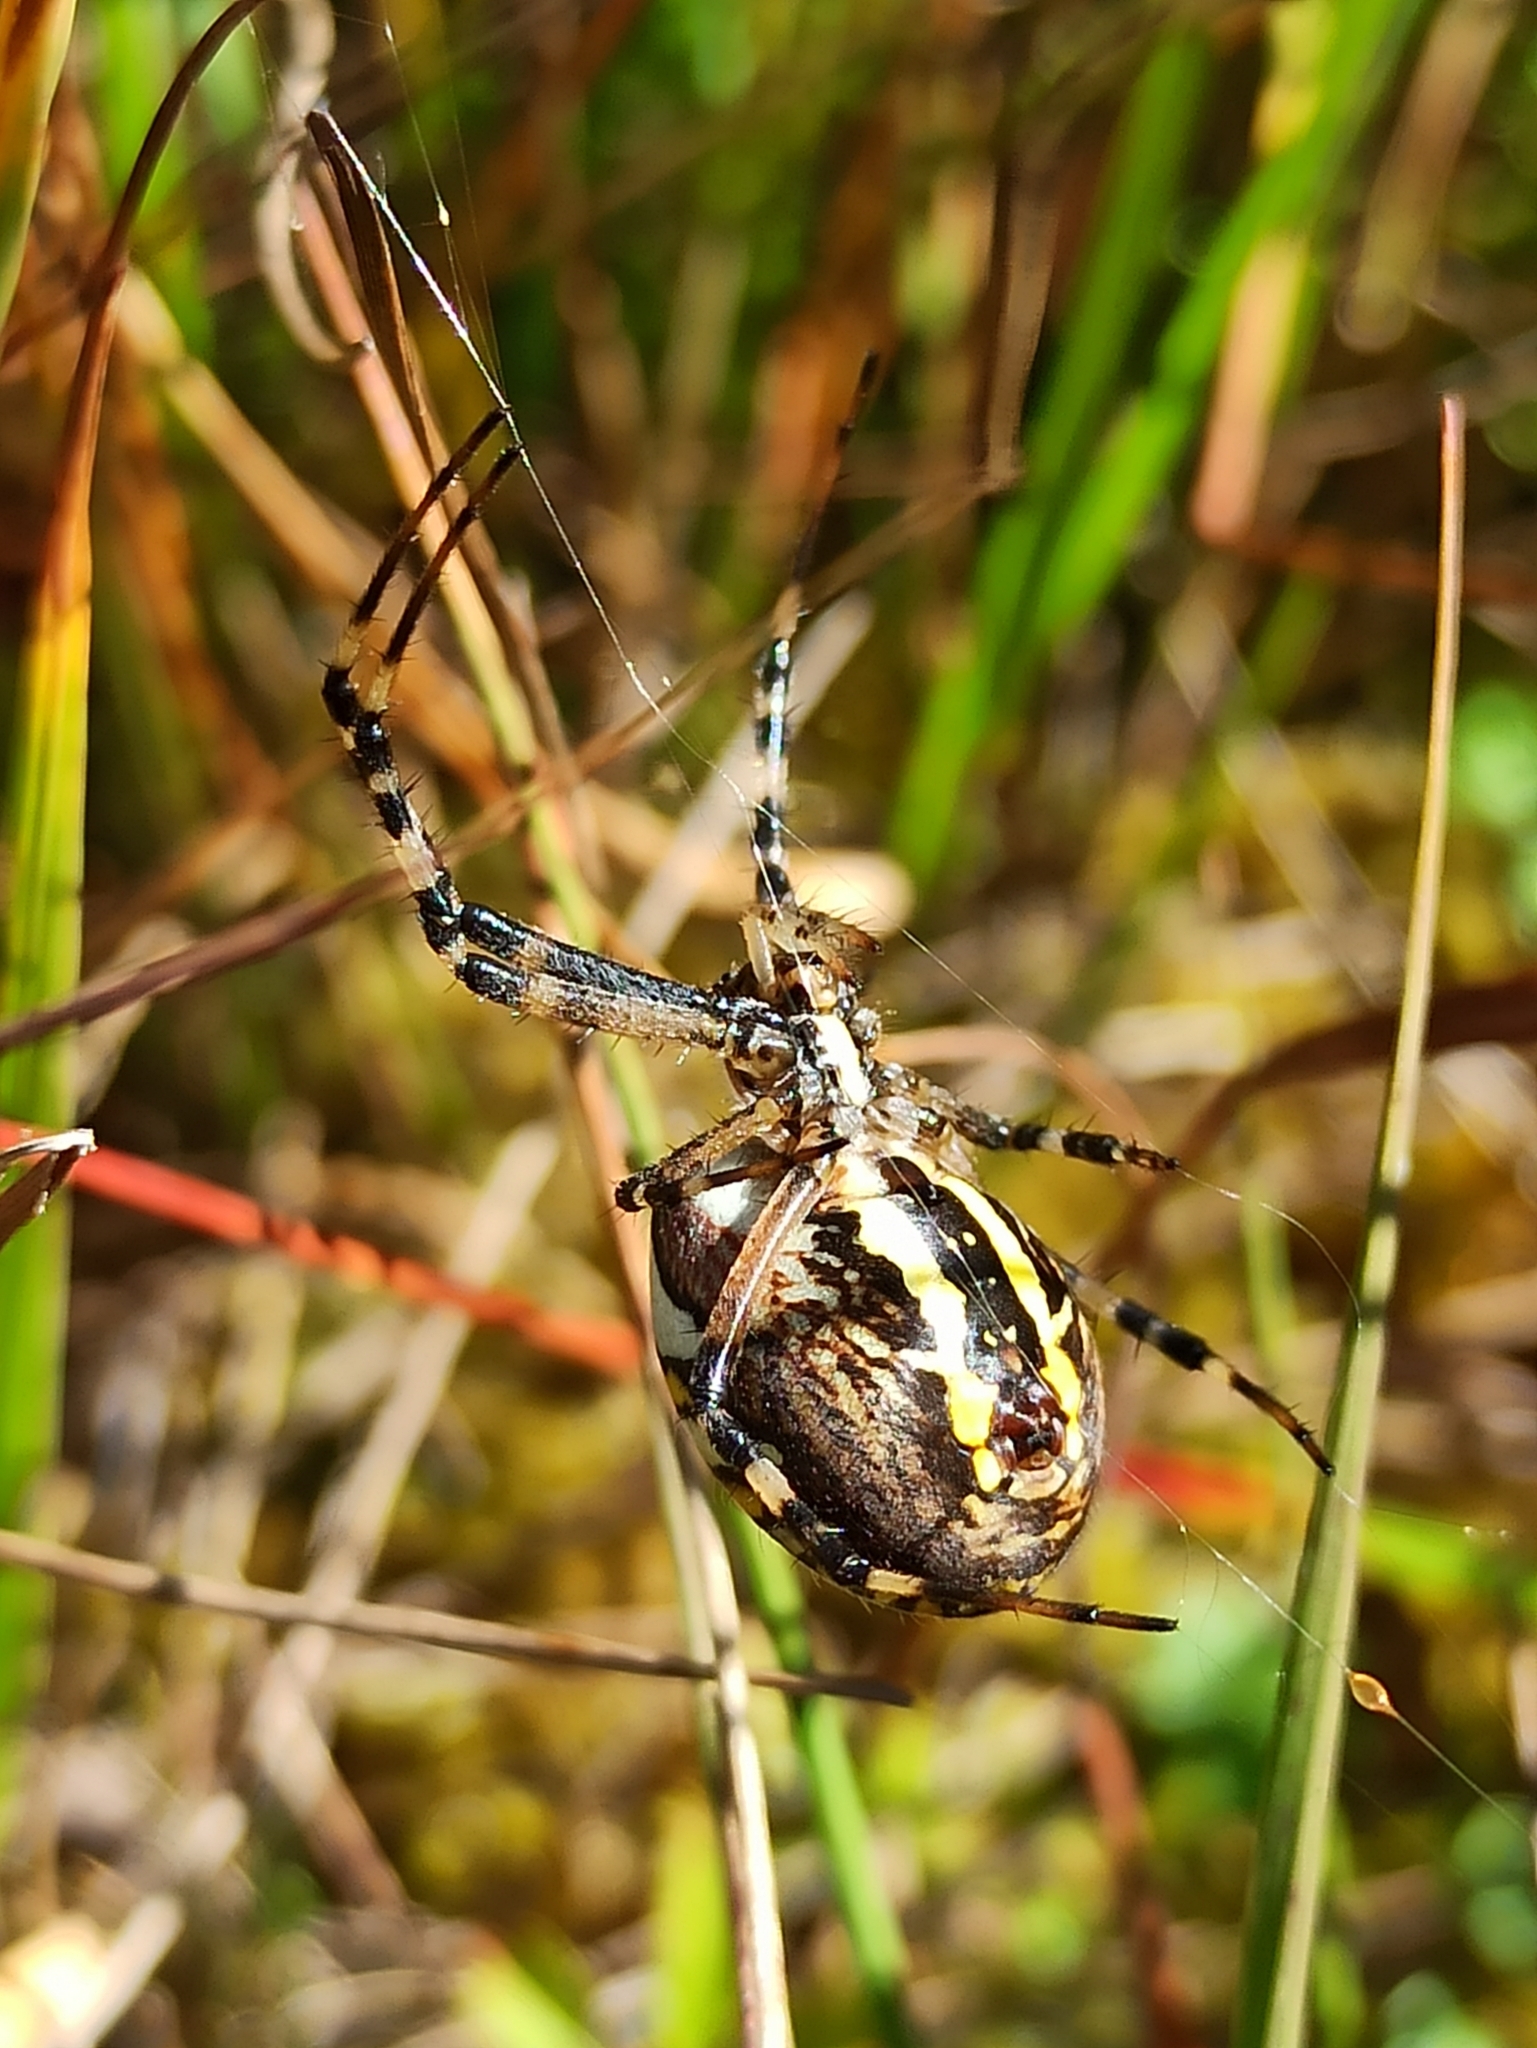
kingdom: Animalia
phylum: Arthropoda
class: Arachnida
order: Araneae
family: Araneidae
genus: Argiope
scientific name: Argiope bruennichi
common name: Wasp spider
